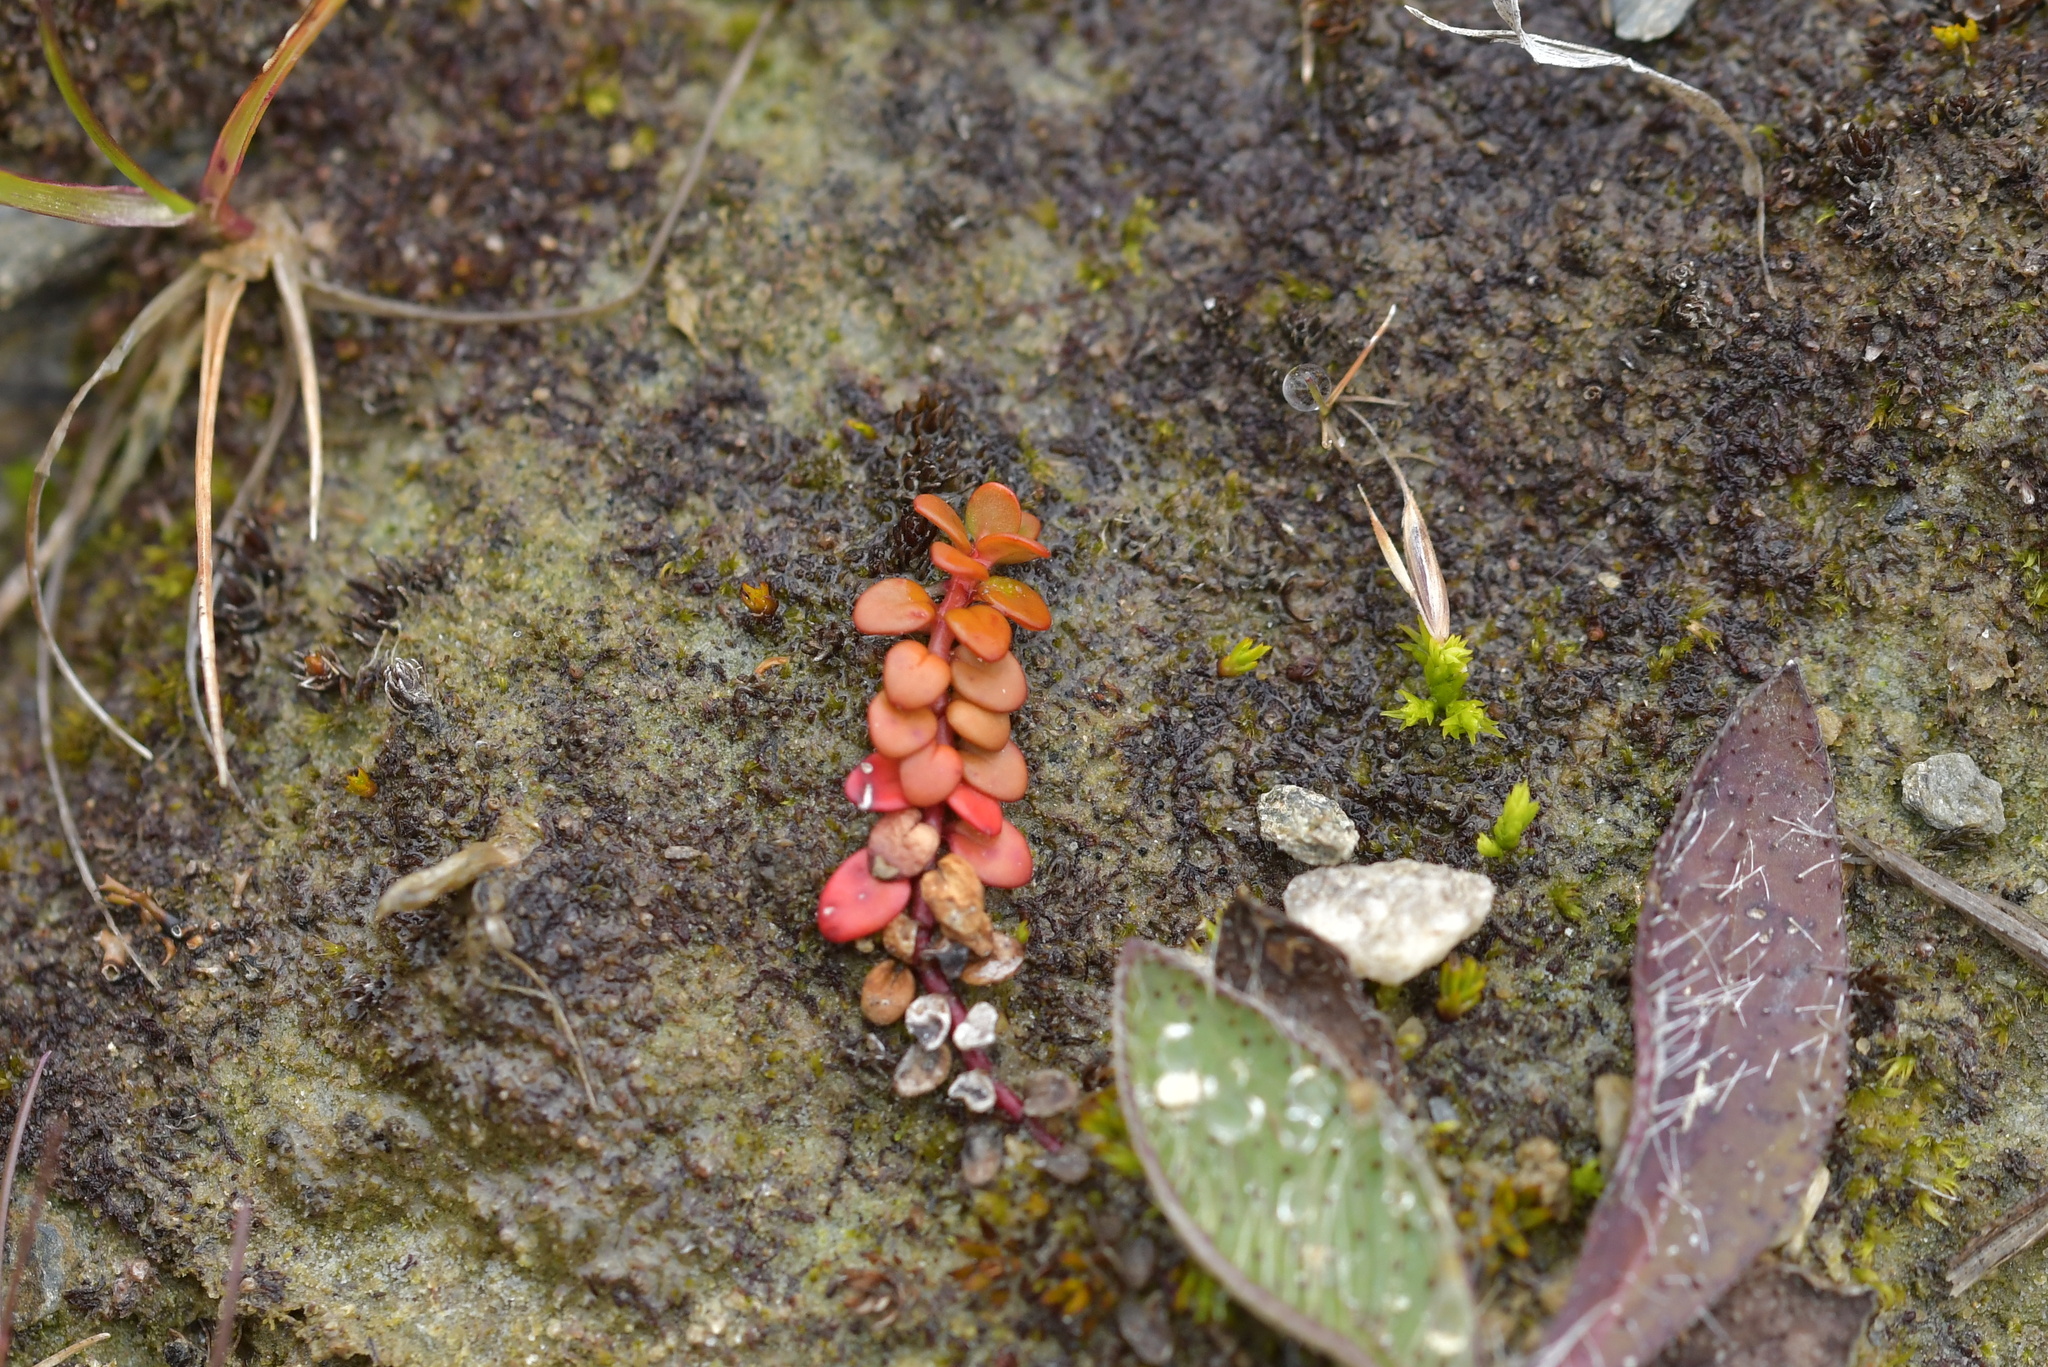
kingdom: Plantae
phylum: Tracheophyta
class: Magnoliopsida
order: Myrtales
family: Onagraceae
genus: Epilobium
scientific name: Epilobium brunnescens
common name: New zealand willowherb
